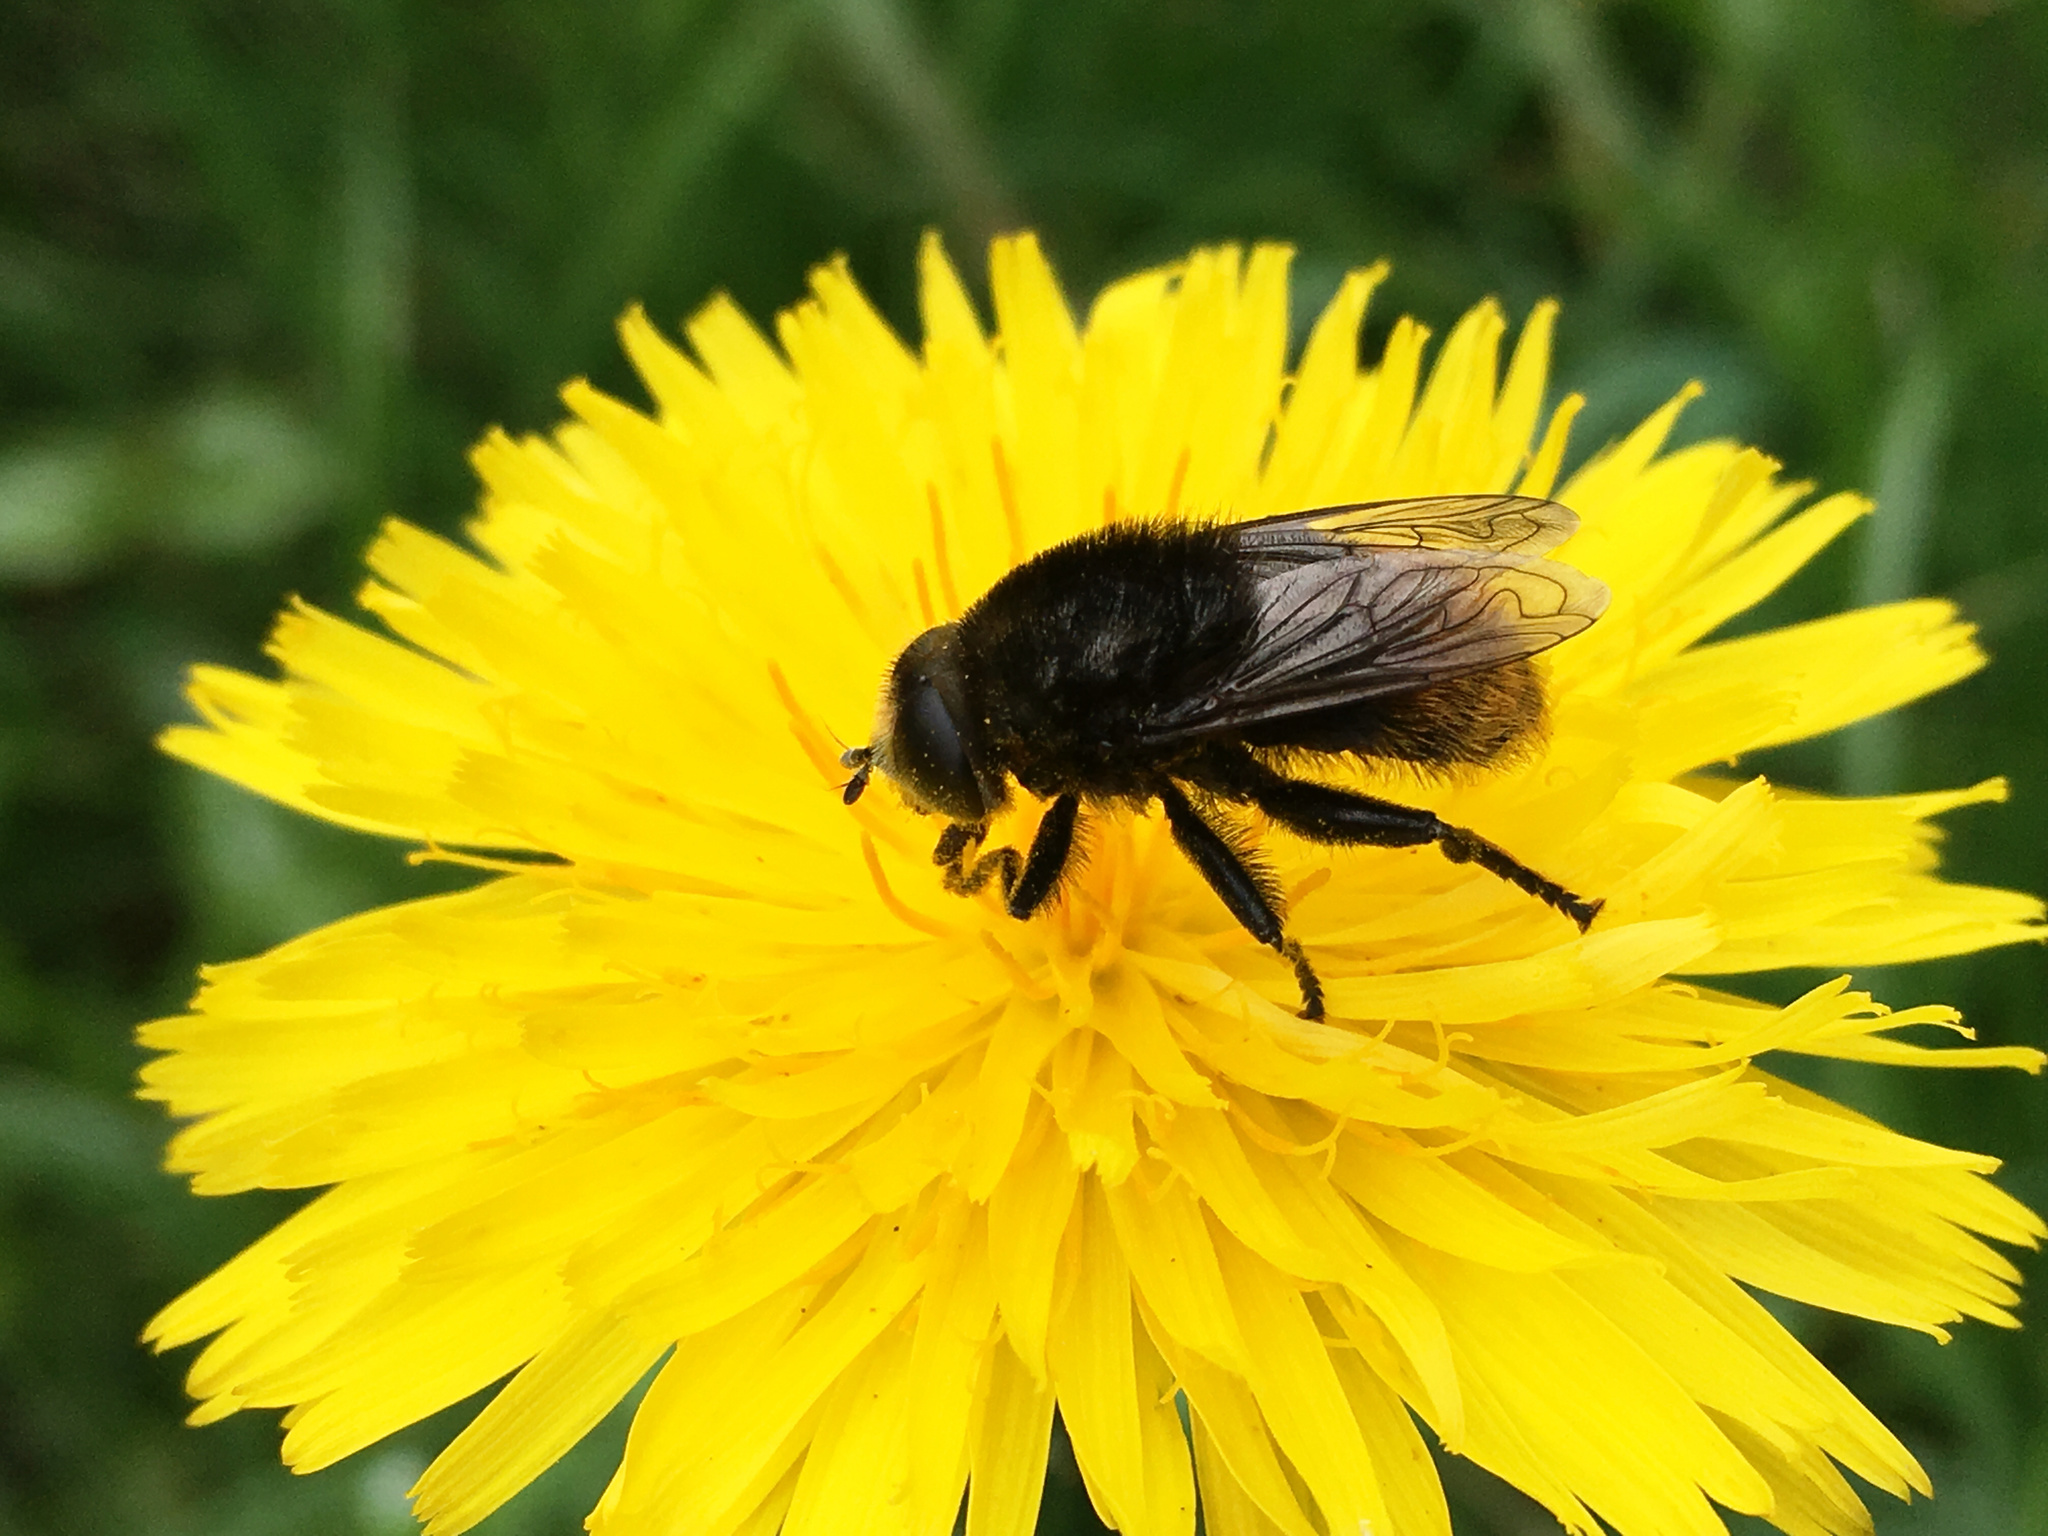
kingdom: Animalia
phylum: Arthropoda
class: Insecta
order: Diptera
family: Syrphidae
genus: Merodon
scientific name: Merodon equestris
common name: Greater bulb-fly
